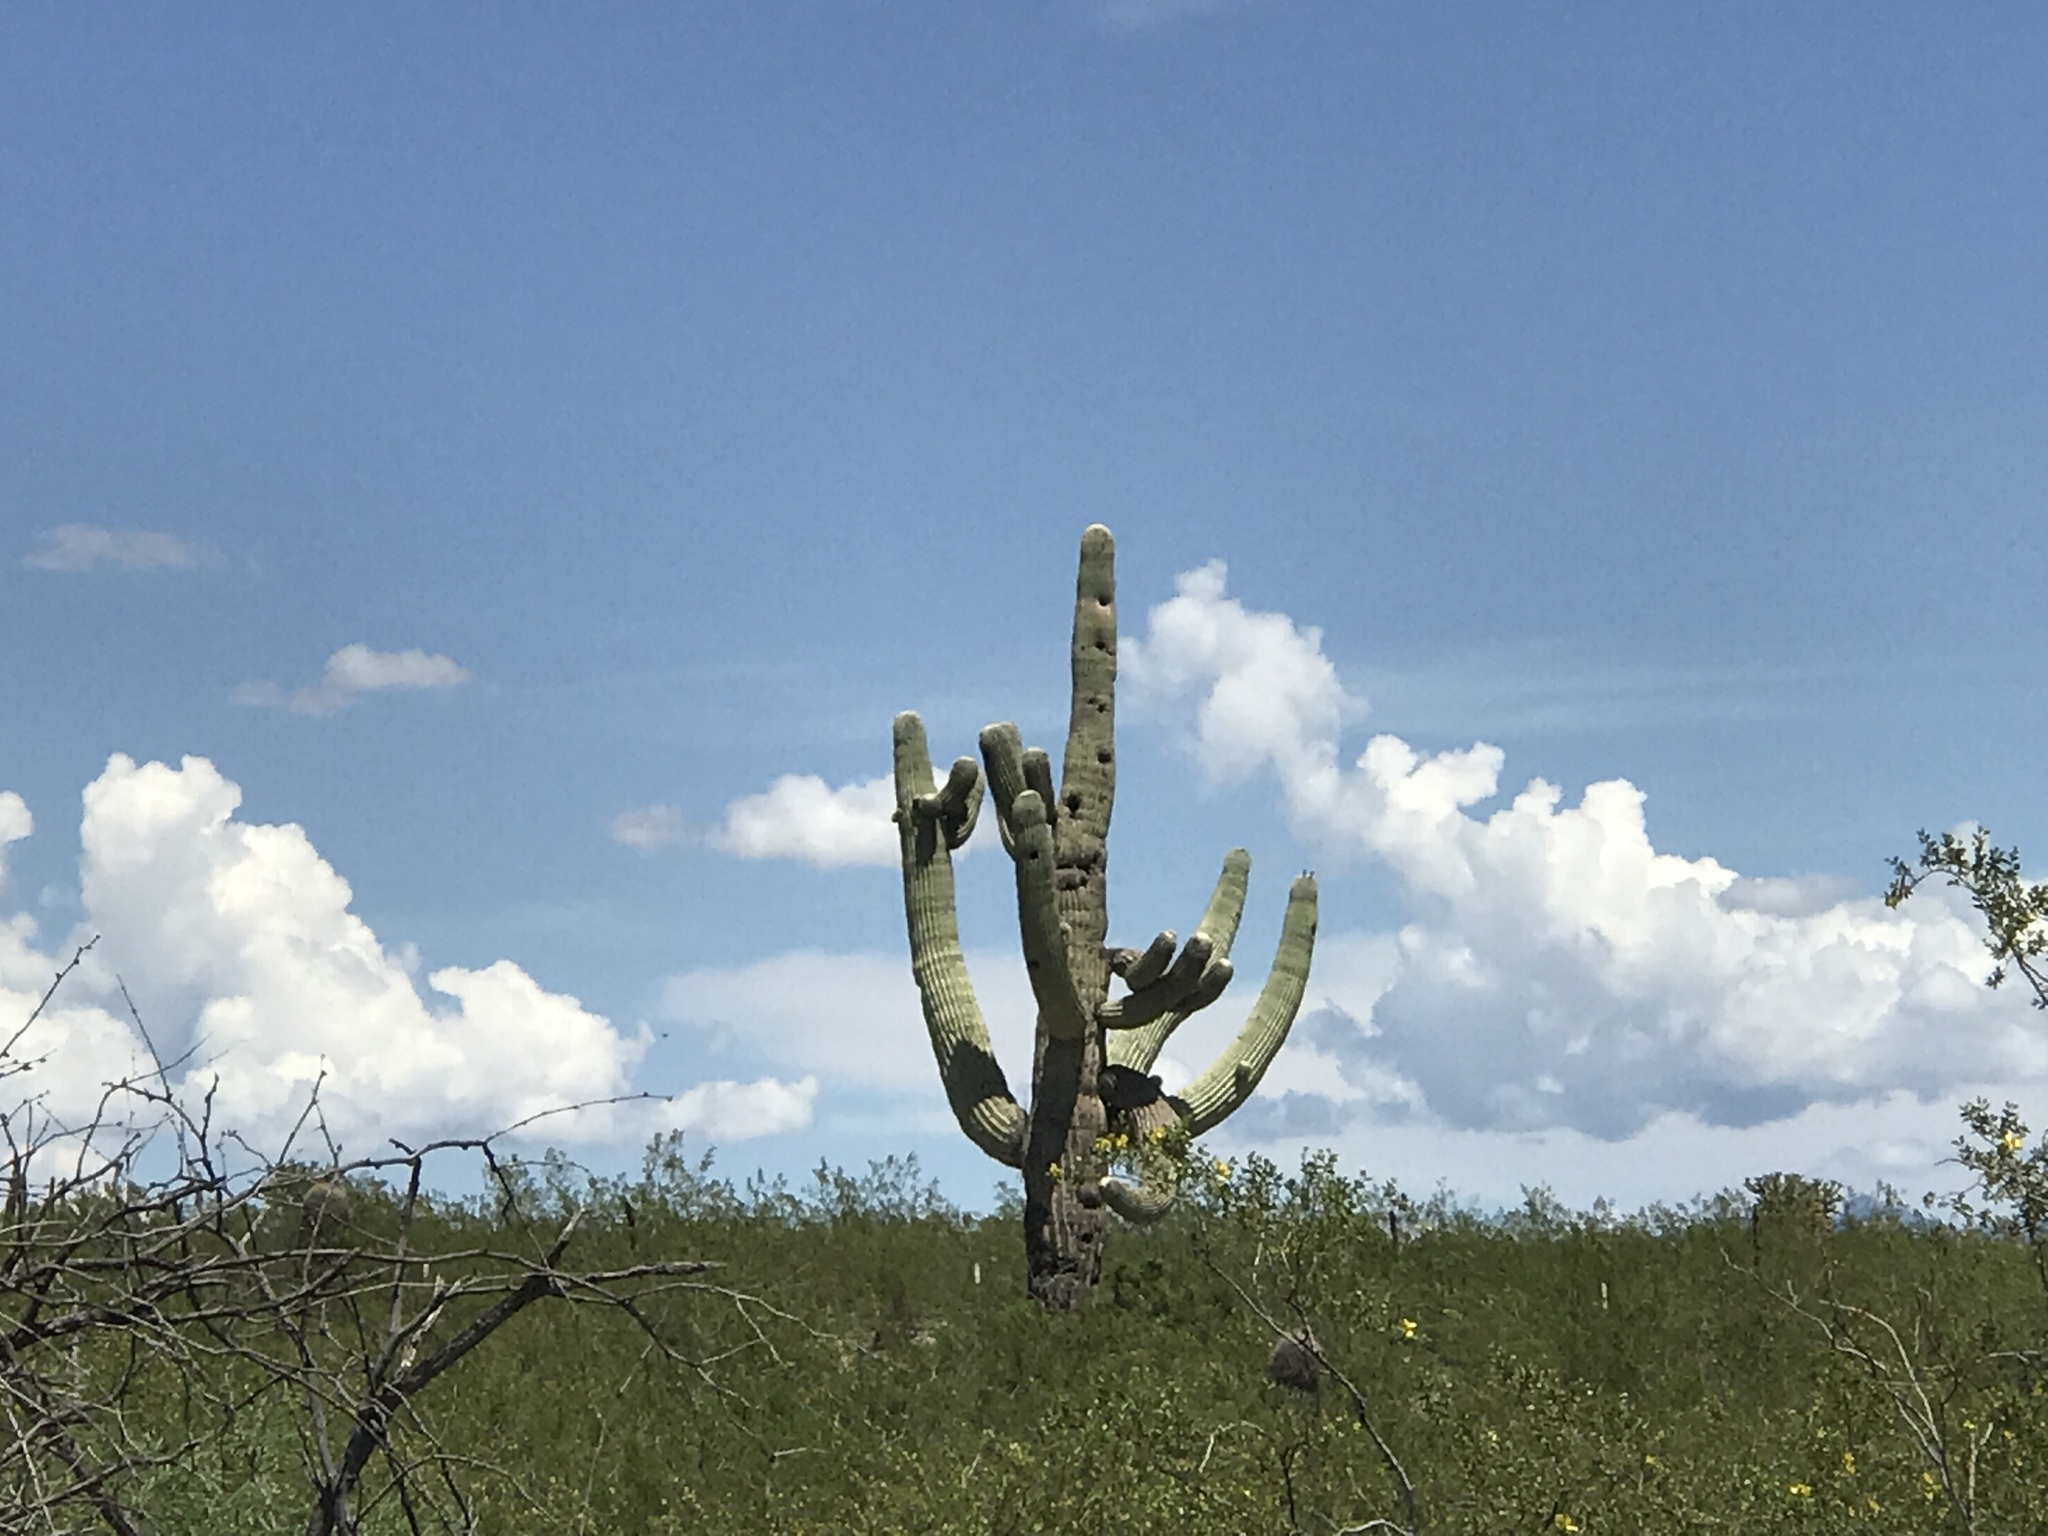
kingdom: Plantae
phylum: Tracheophyta
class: Magnoliopsida
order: Caryophyllales
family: Cactaceae
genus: Carnegiea
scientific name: Carnegiea gigantea
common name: Saguaro
